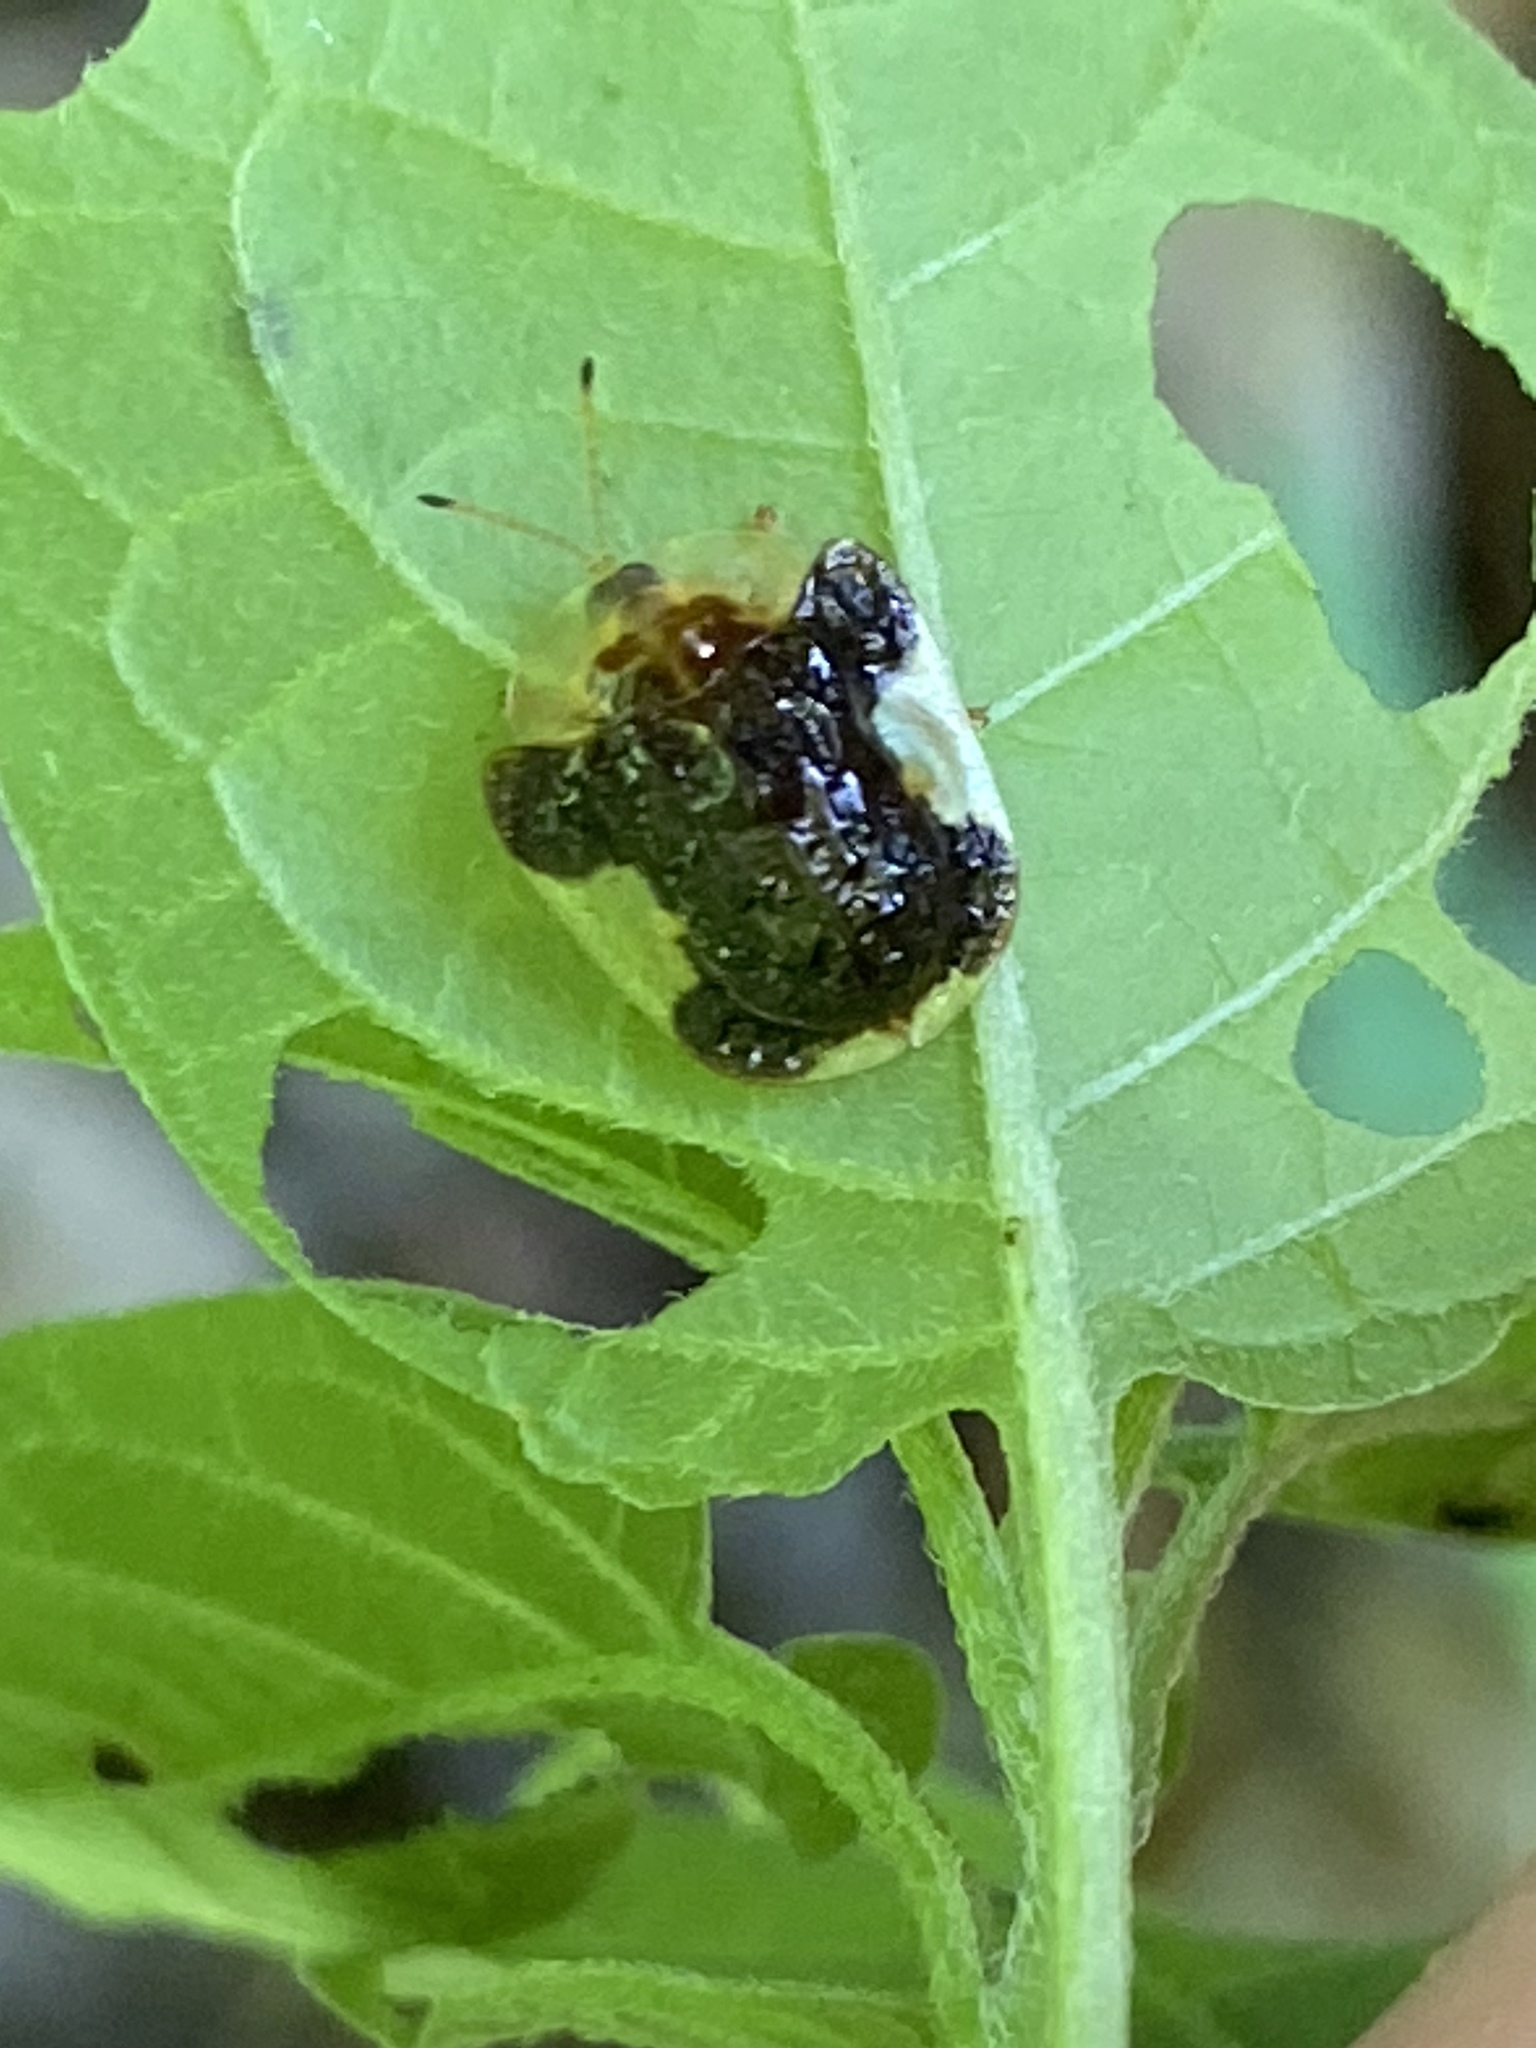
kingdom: Animalia
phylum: Arthropoda
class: Insecta
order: Coleoptera
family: Chrysomelidae
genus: Helocassis
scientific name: Helocassis clavata
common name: Clavate tortoise beetle
